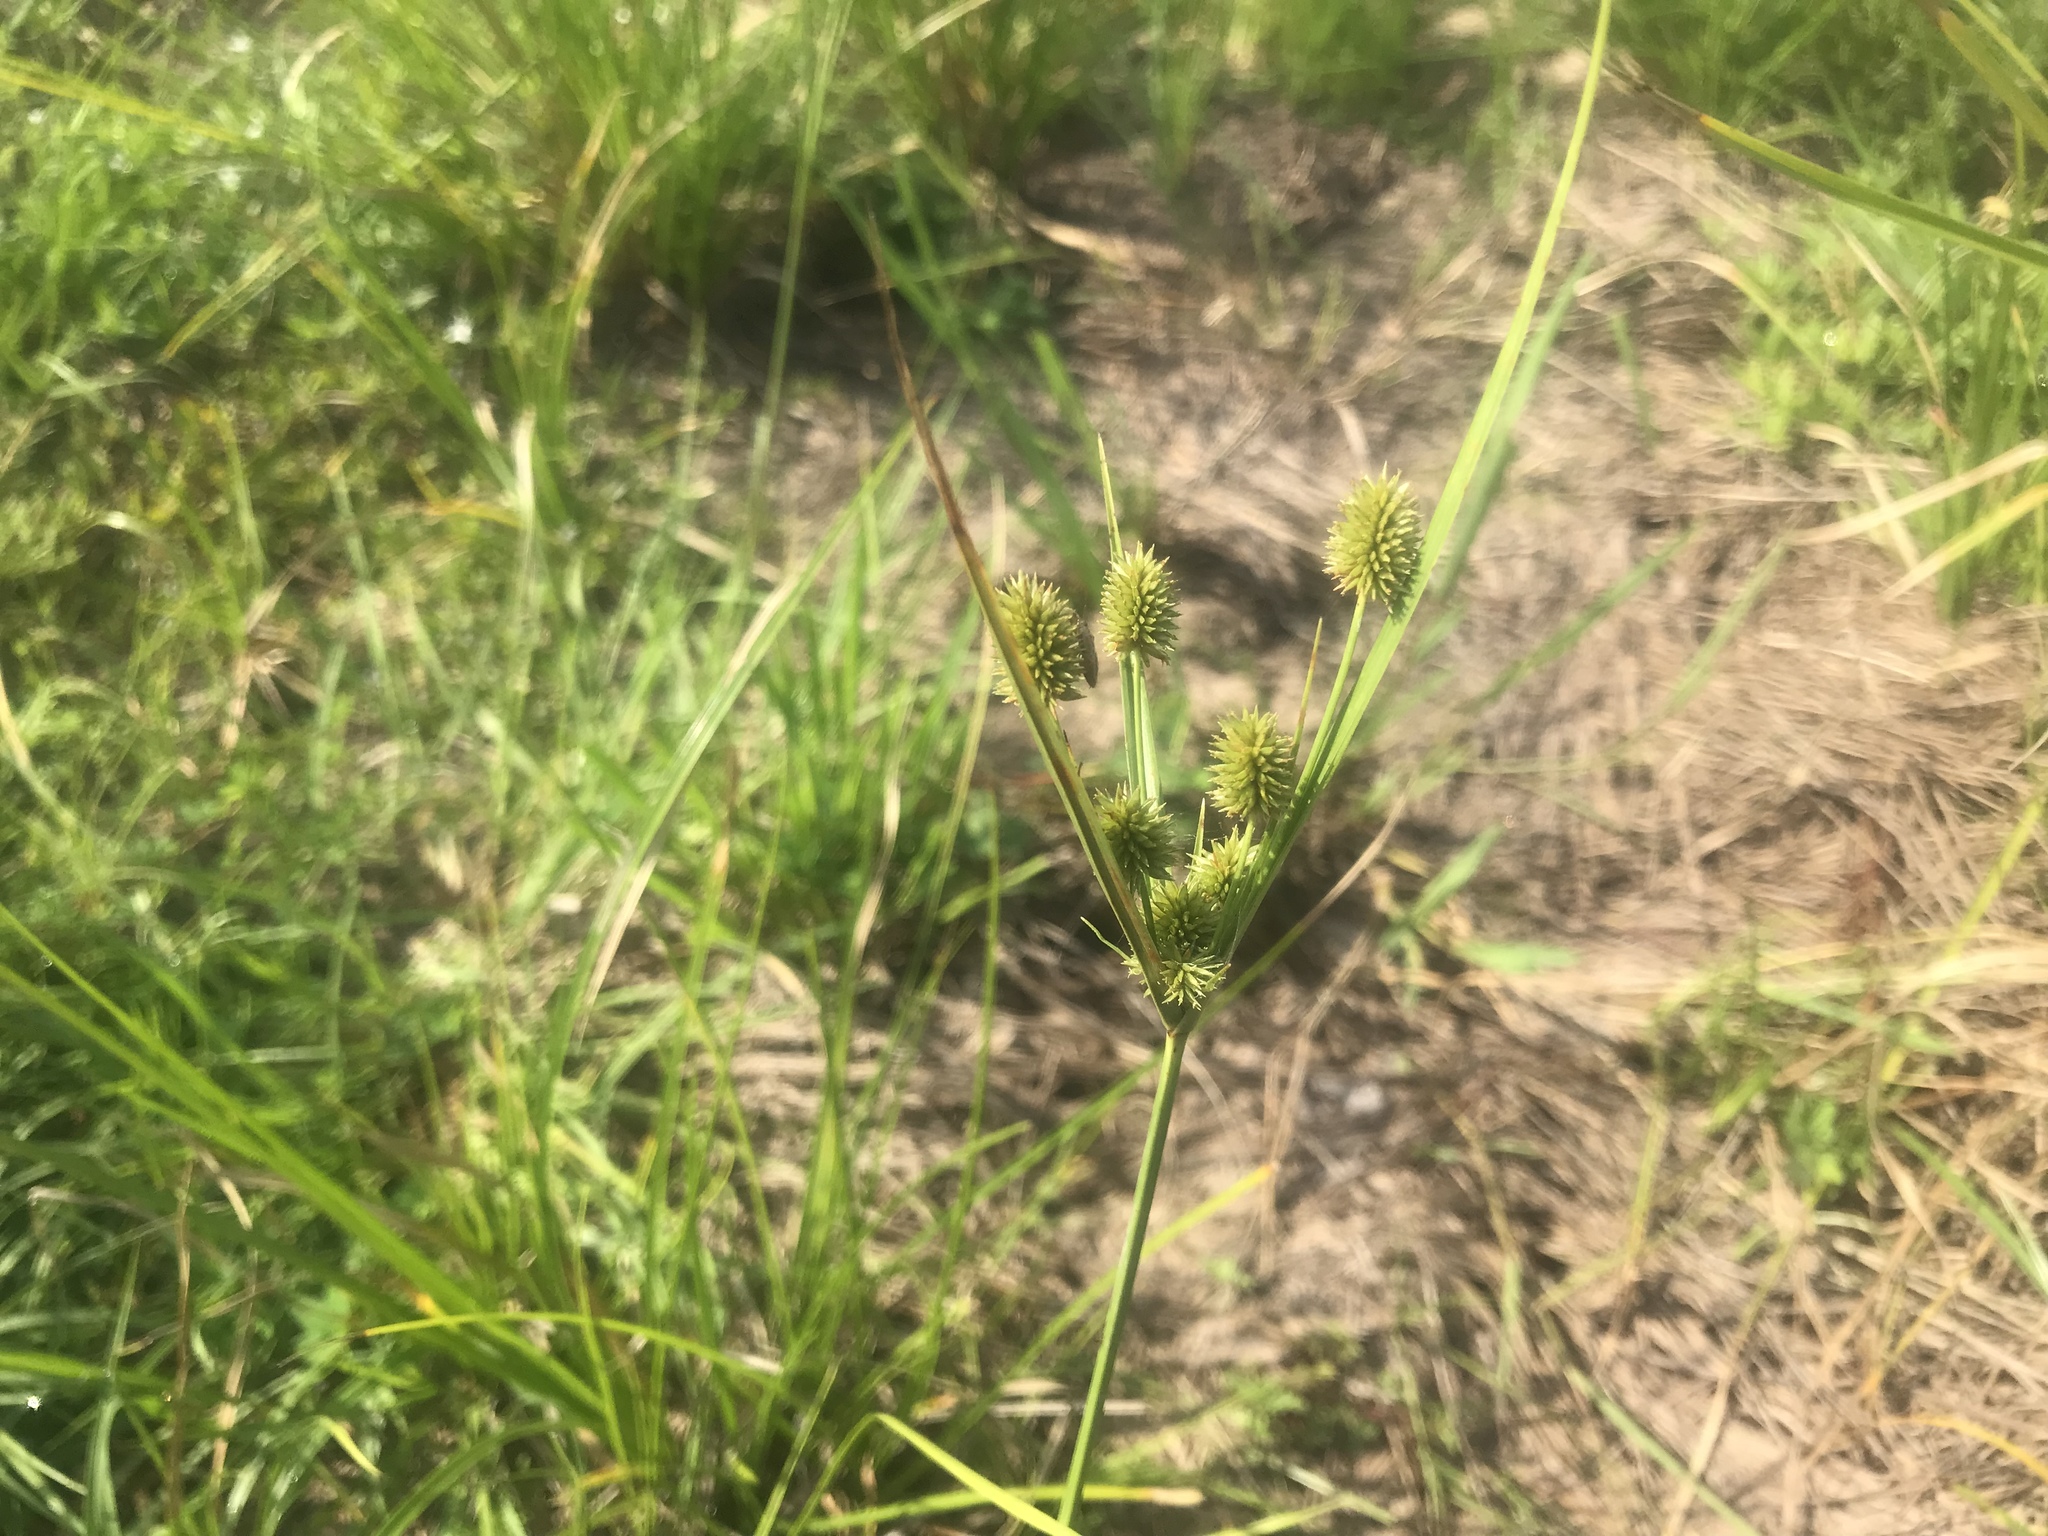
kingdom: Plantae
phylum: Tracheophyta
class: Liliopsida
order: Poales
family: Cyperaceae
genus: Cyperus
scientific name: Cyperus echinatus
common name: Teasel sedge
